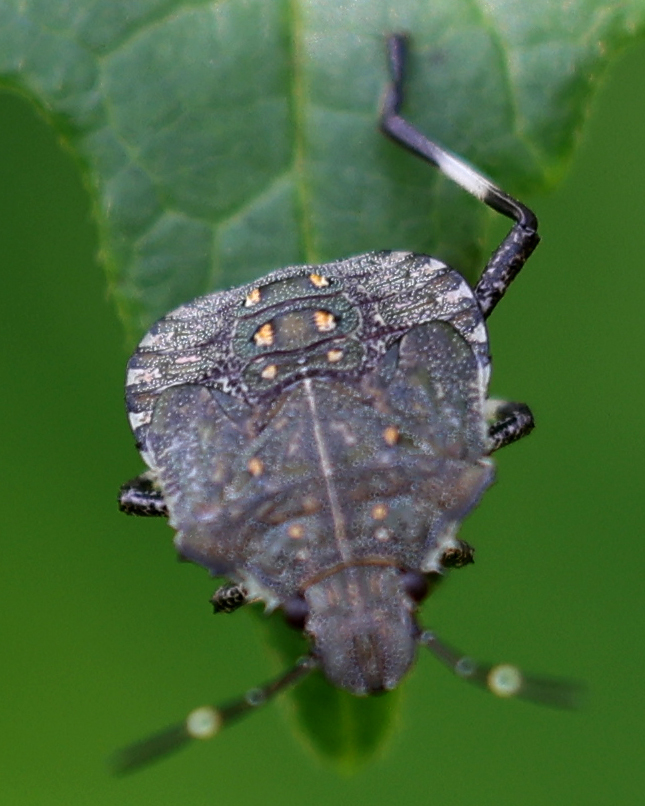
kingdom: Animalia
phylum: Arthropoda
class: Insecta
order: Hemiptera
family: Pentatomidae
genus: Halyomorpha
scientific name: Halyomorpha halys
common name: Brown marmorated stink bug
